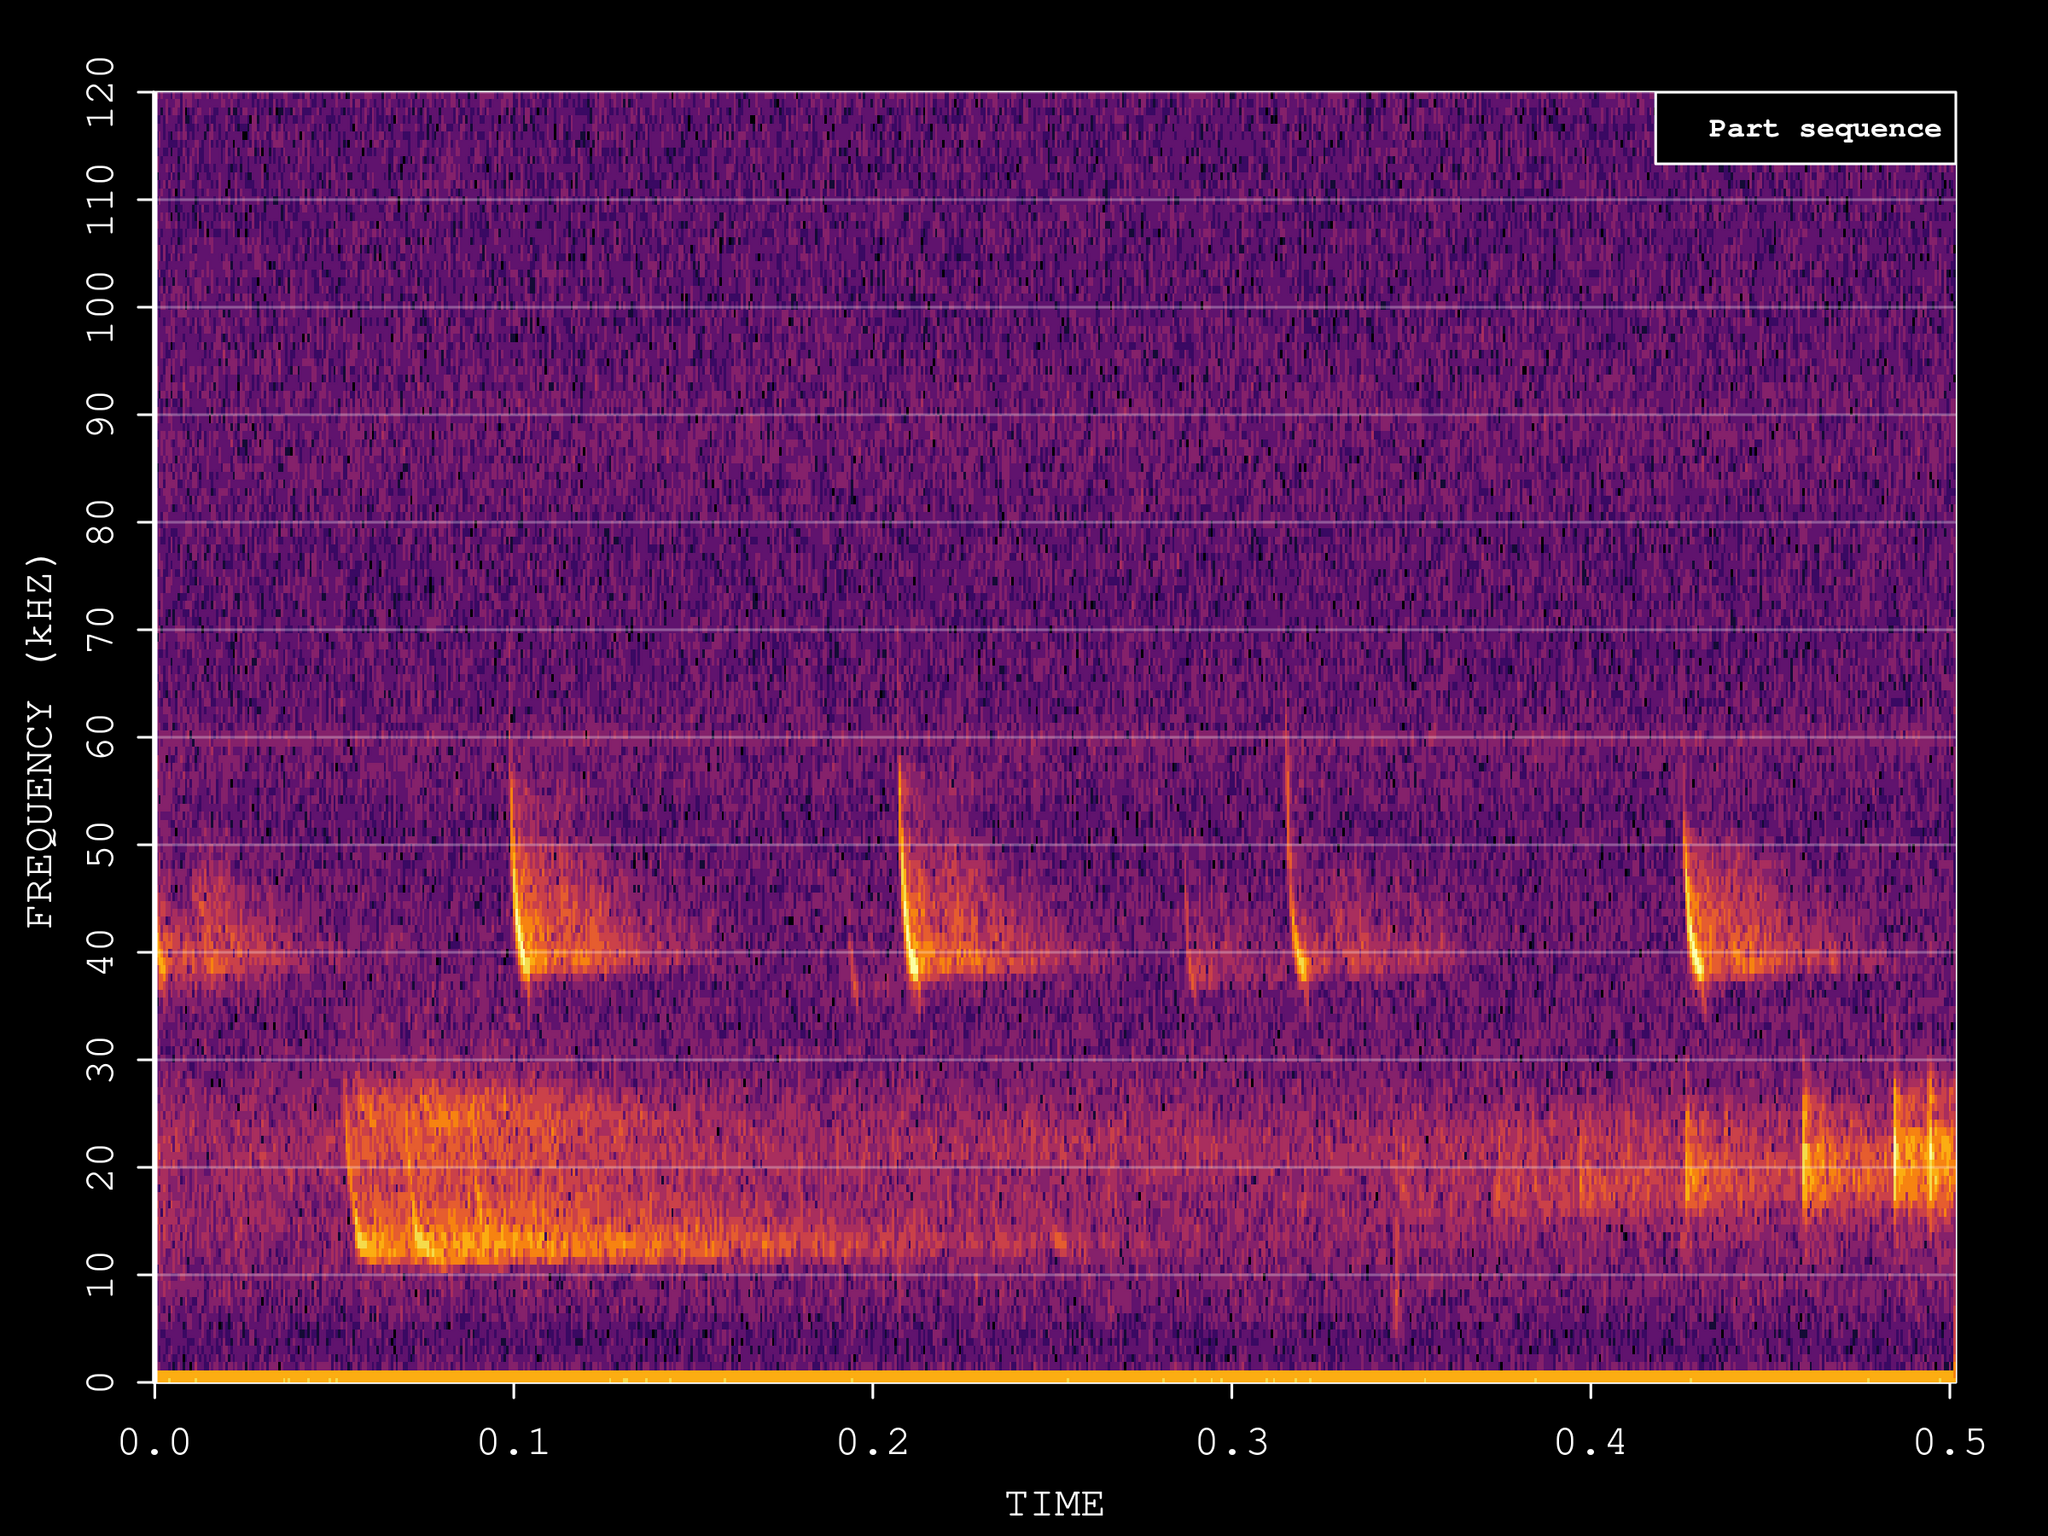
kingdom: Animalia
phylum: Chordata
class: Mammalia
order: Chiroptera
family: Vespertilionidae
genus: Pipistrellus
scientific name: Pipistrellus kuhlii
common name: Kuhl's pipistrelle
